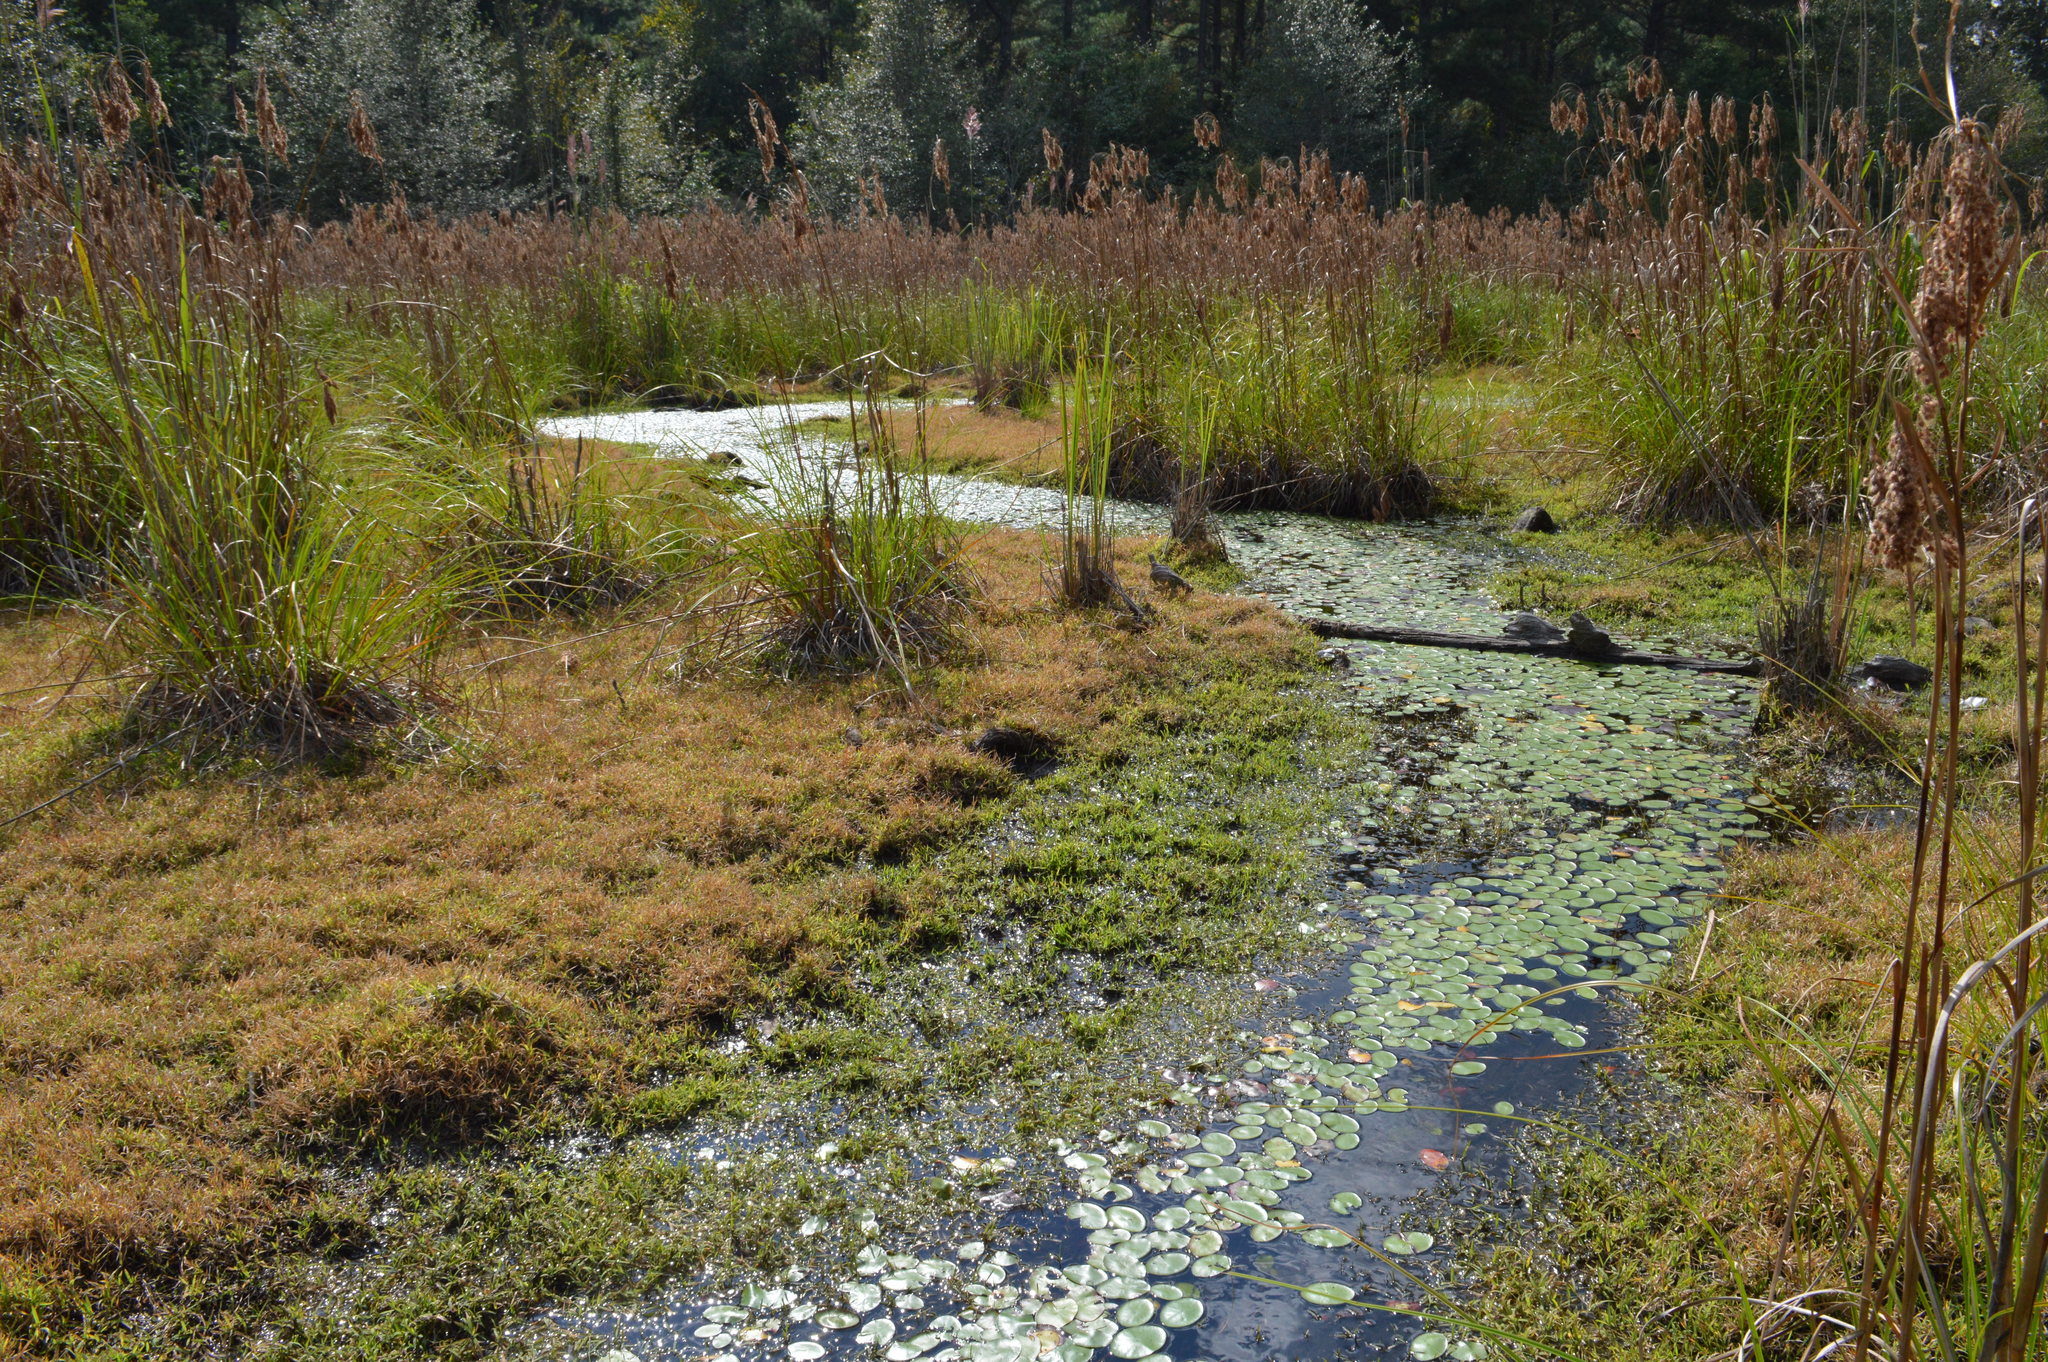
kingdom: Plantae
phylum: Tracheophyta
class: Magnoliopsida
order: Nymphaeales
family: Cabombaceae
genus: Brasenia
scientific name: Brasenia schreberi
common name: Water-shield
